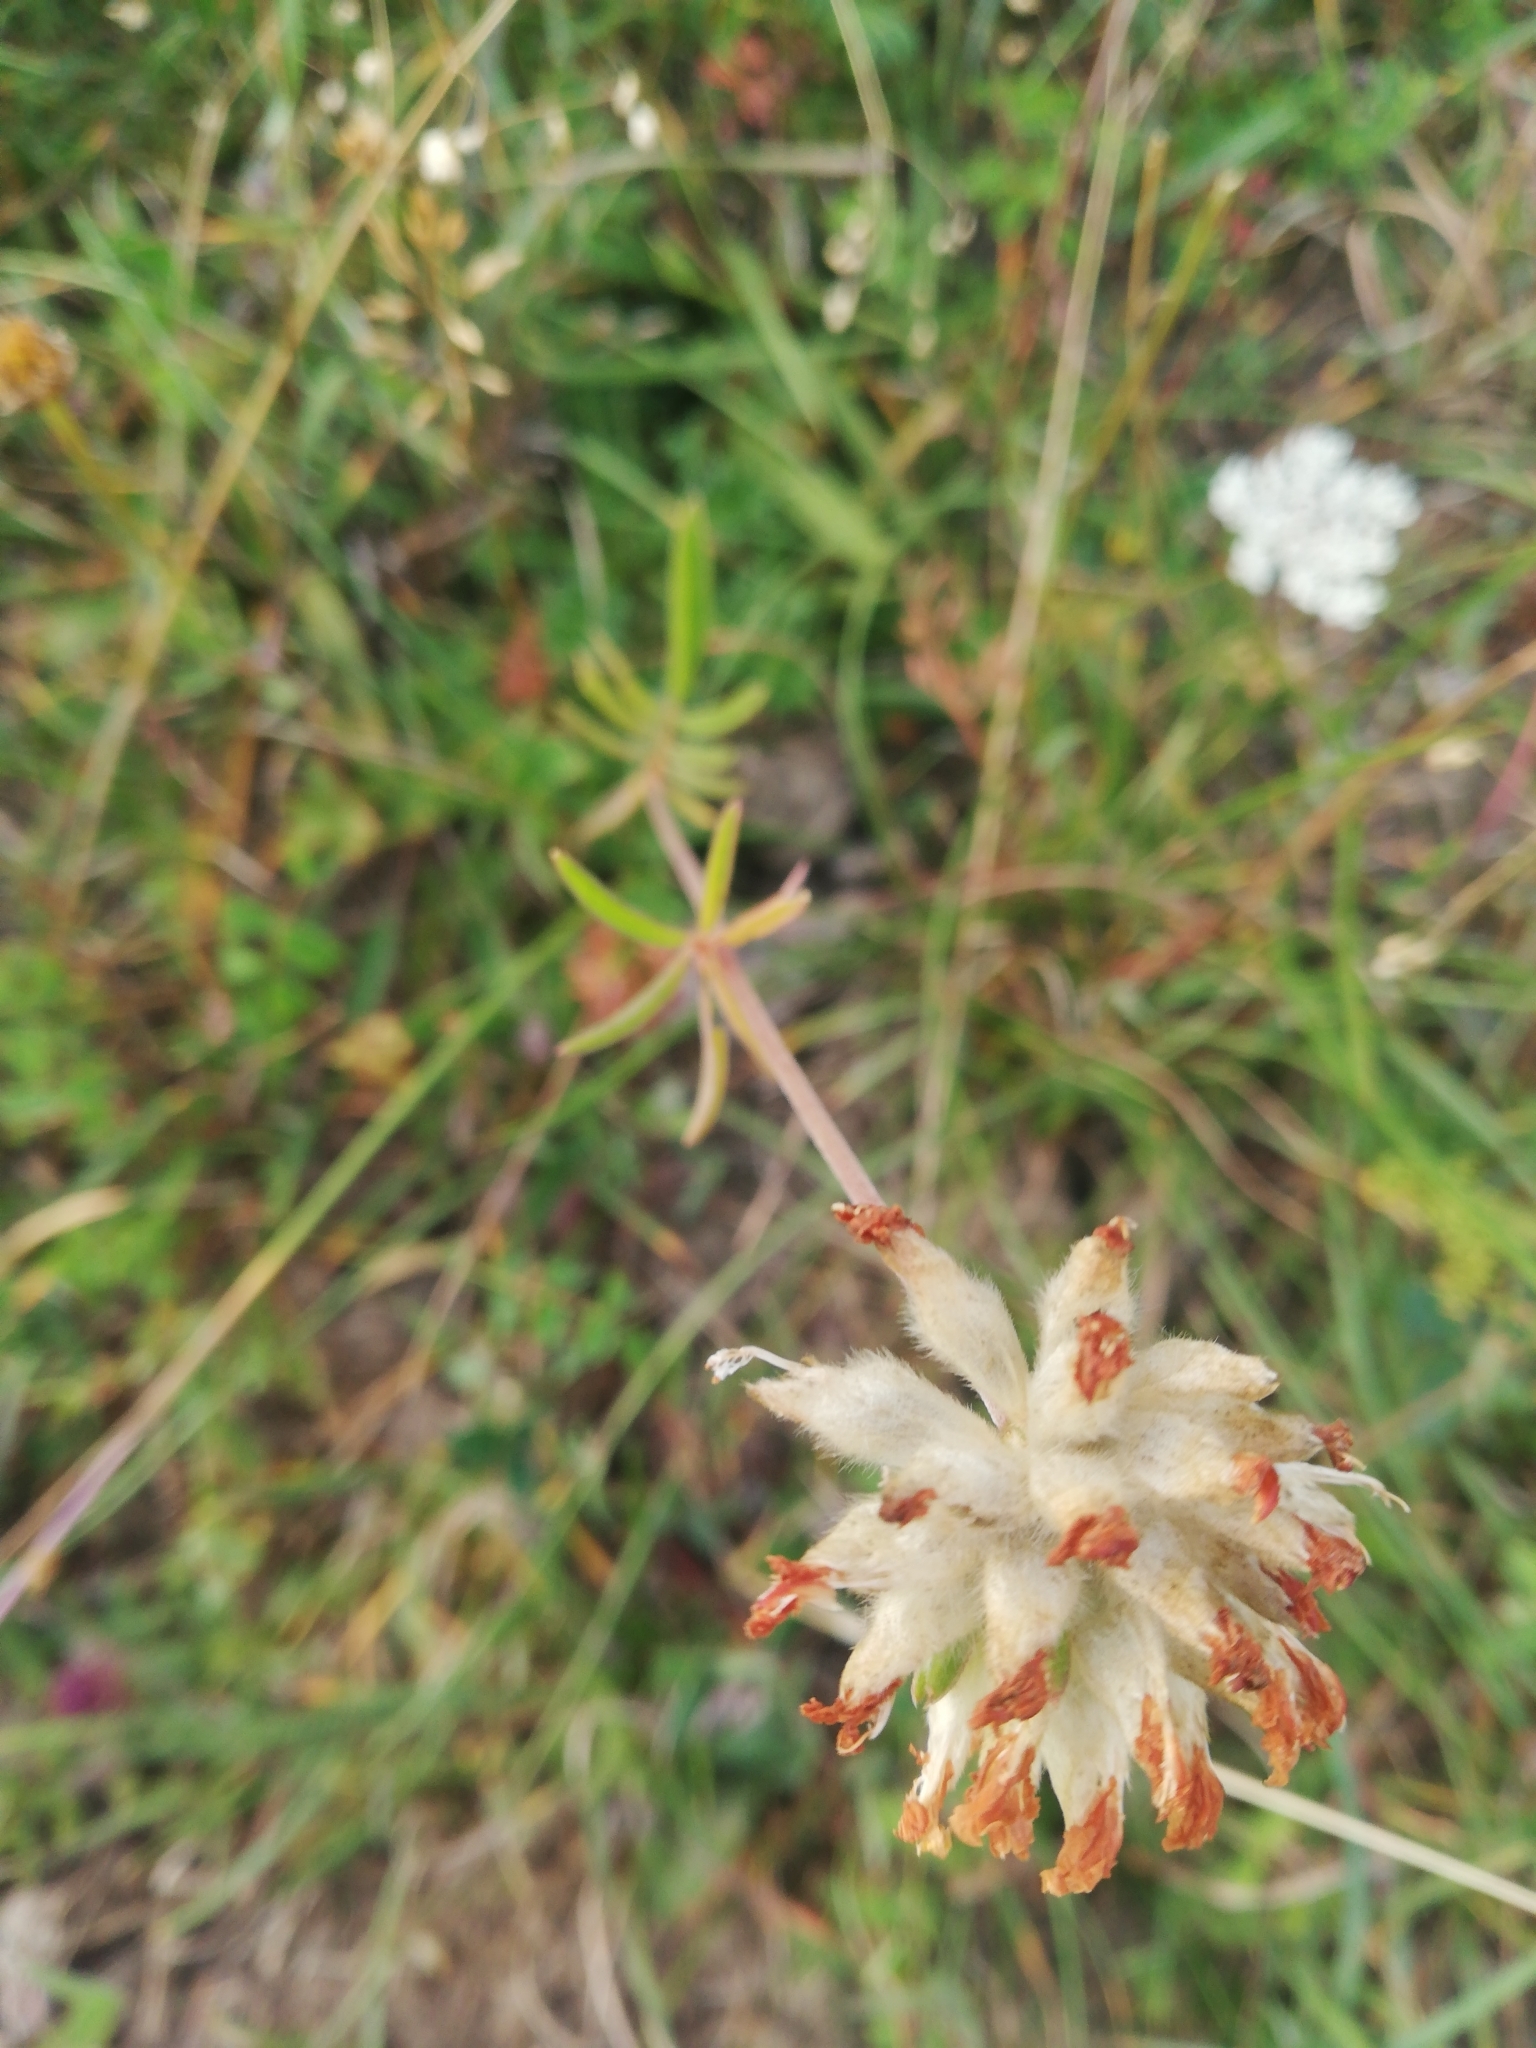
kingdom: Plantae
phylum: Tracheophyta
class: Magnoliopsida
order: Fabales
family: Fabaceae
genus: Anthyllis
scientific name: Anthyllis vulneraria
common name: Kidney vetch
